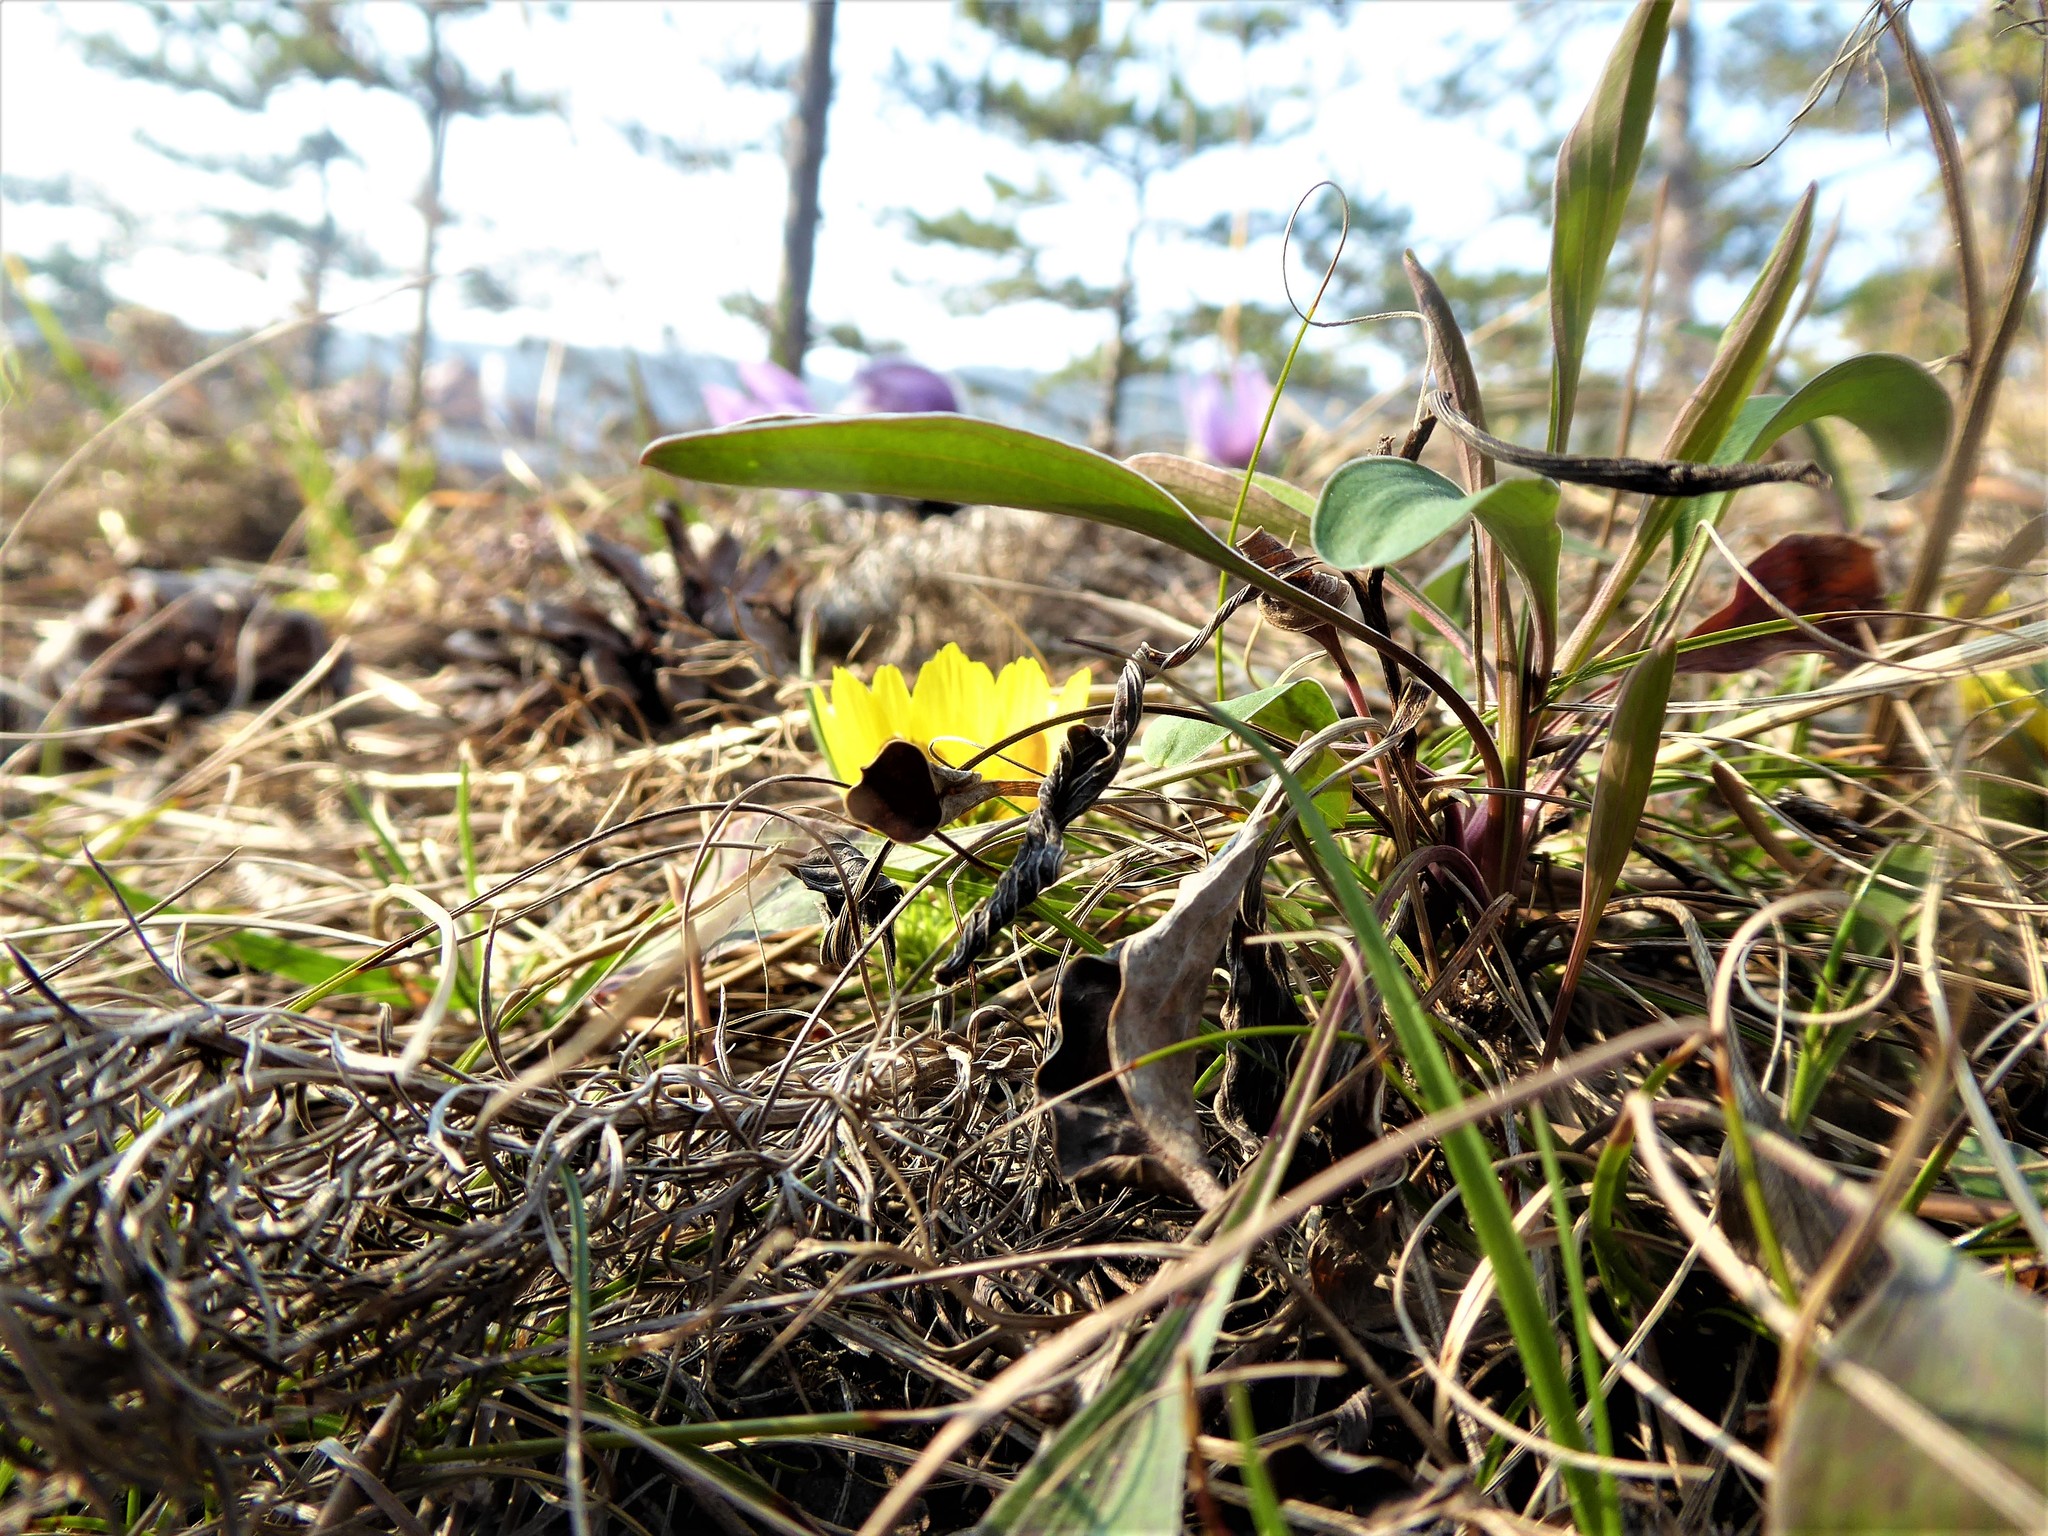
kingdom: Plantae
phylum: Tracheophyta
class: Magnoliopsida
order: Ranunculales
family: Ranunculaceae
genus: Adonis
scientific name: Adonis vernalis
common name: Yellow pheasants-eye
